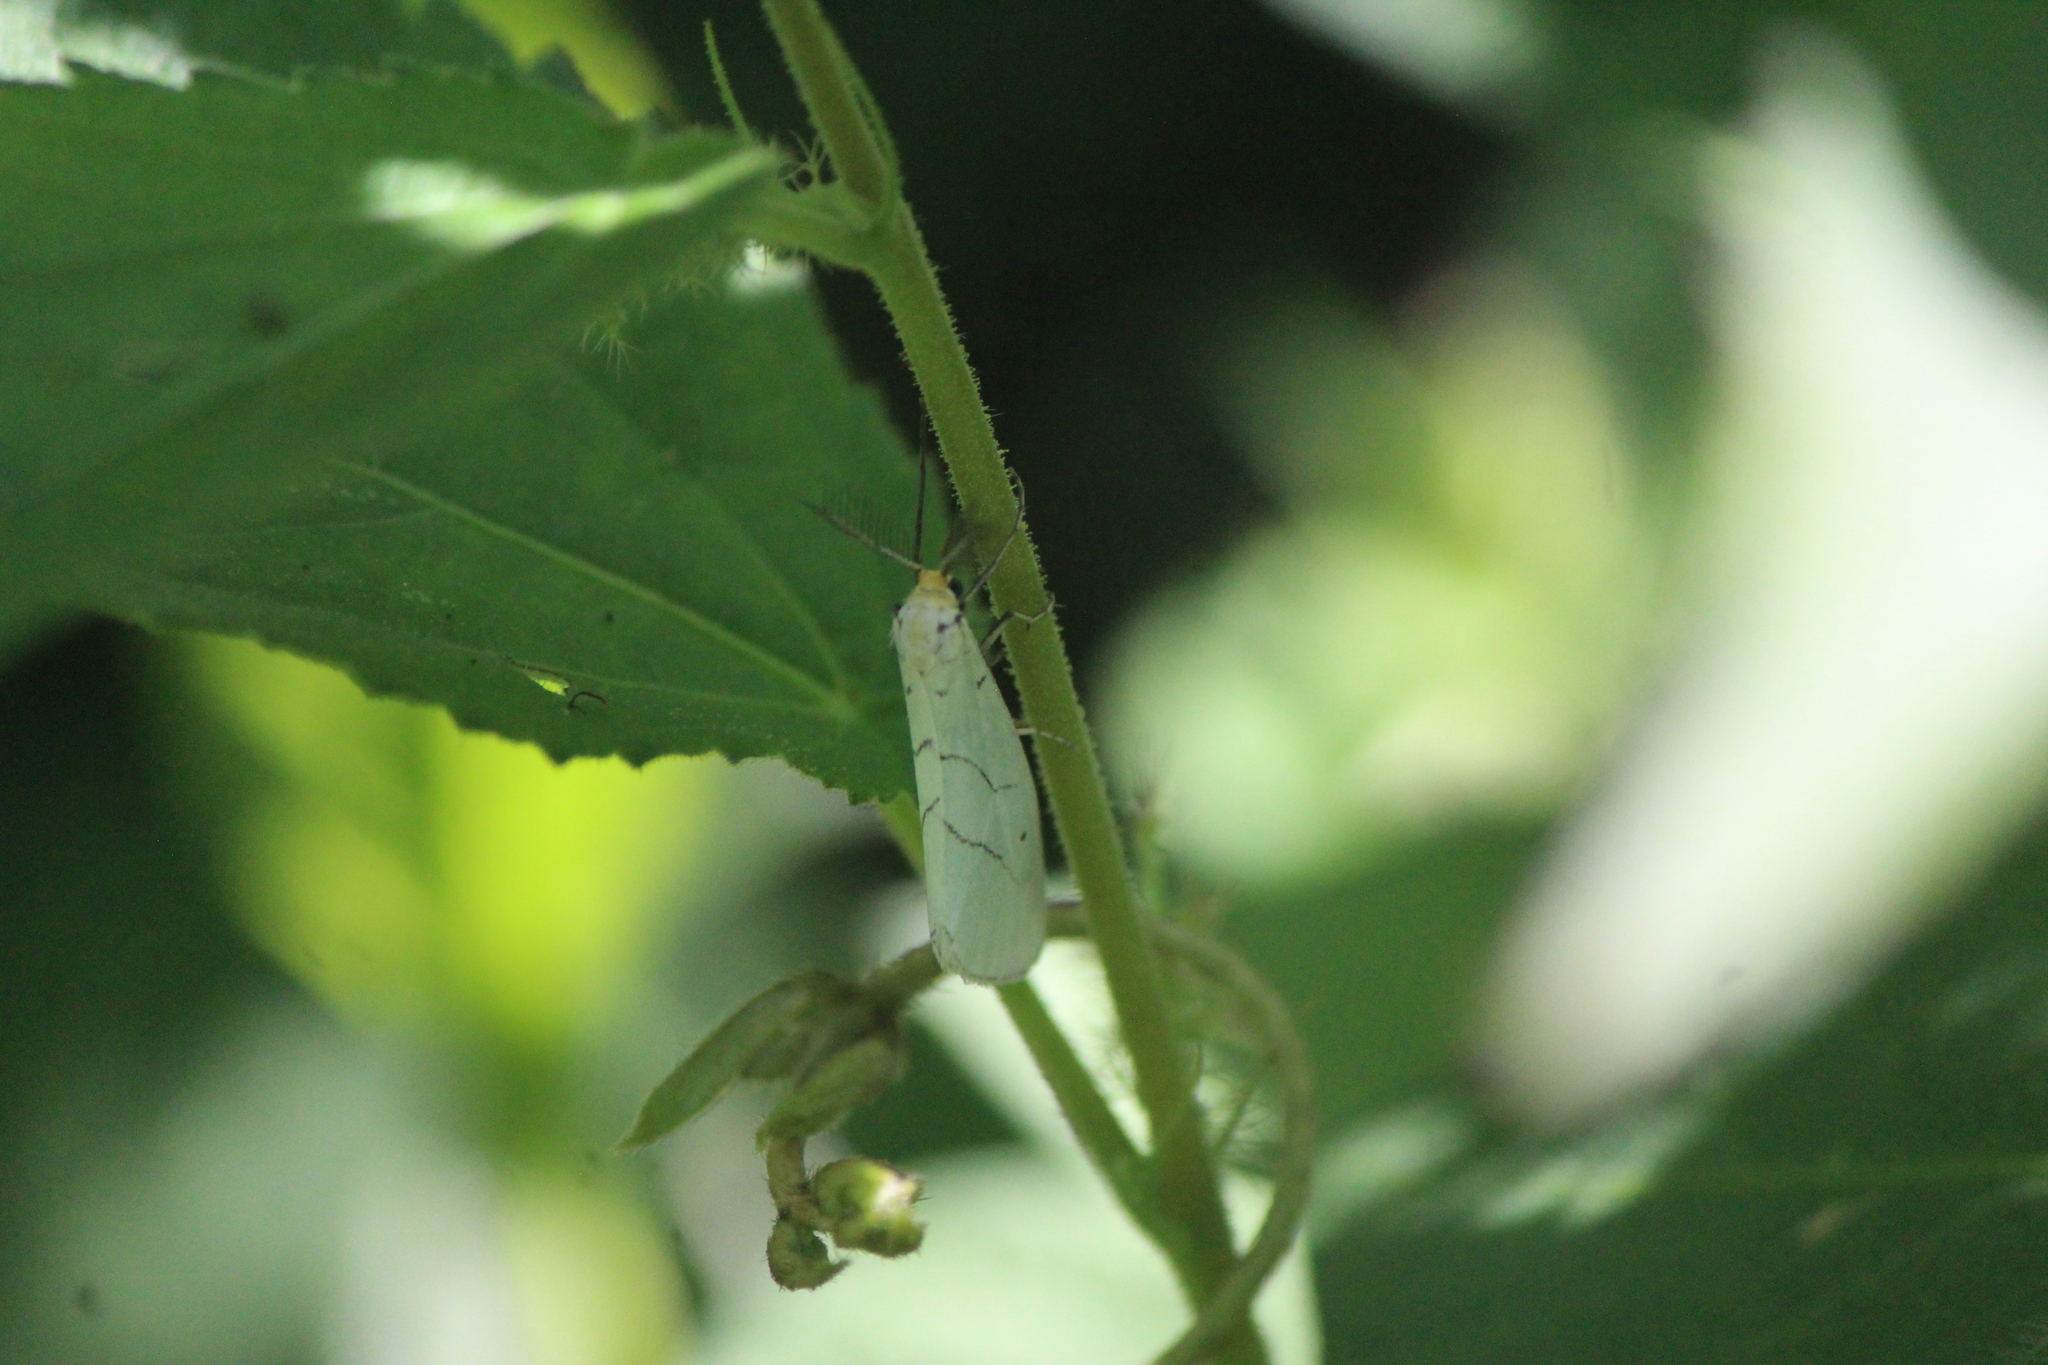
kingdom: Animalia
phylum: Arthropoda
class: Insecta
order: Lepidoptera
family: Doidae
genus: Leuculodes
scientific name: Leuculodes lacteolaria
